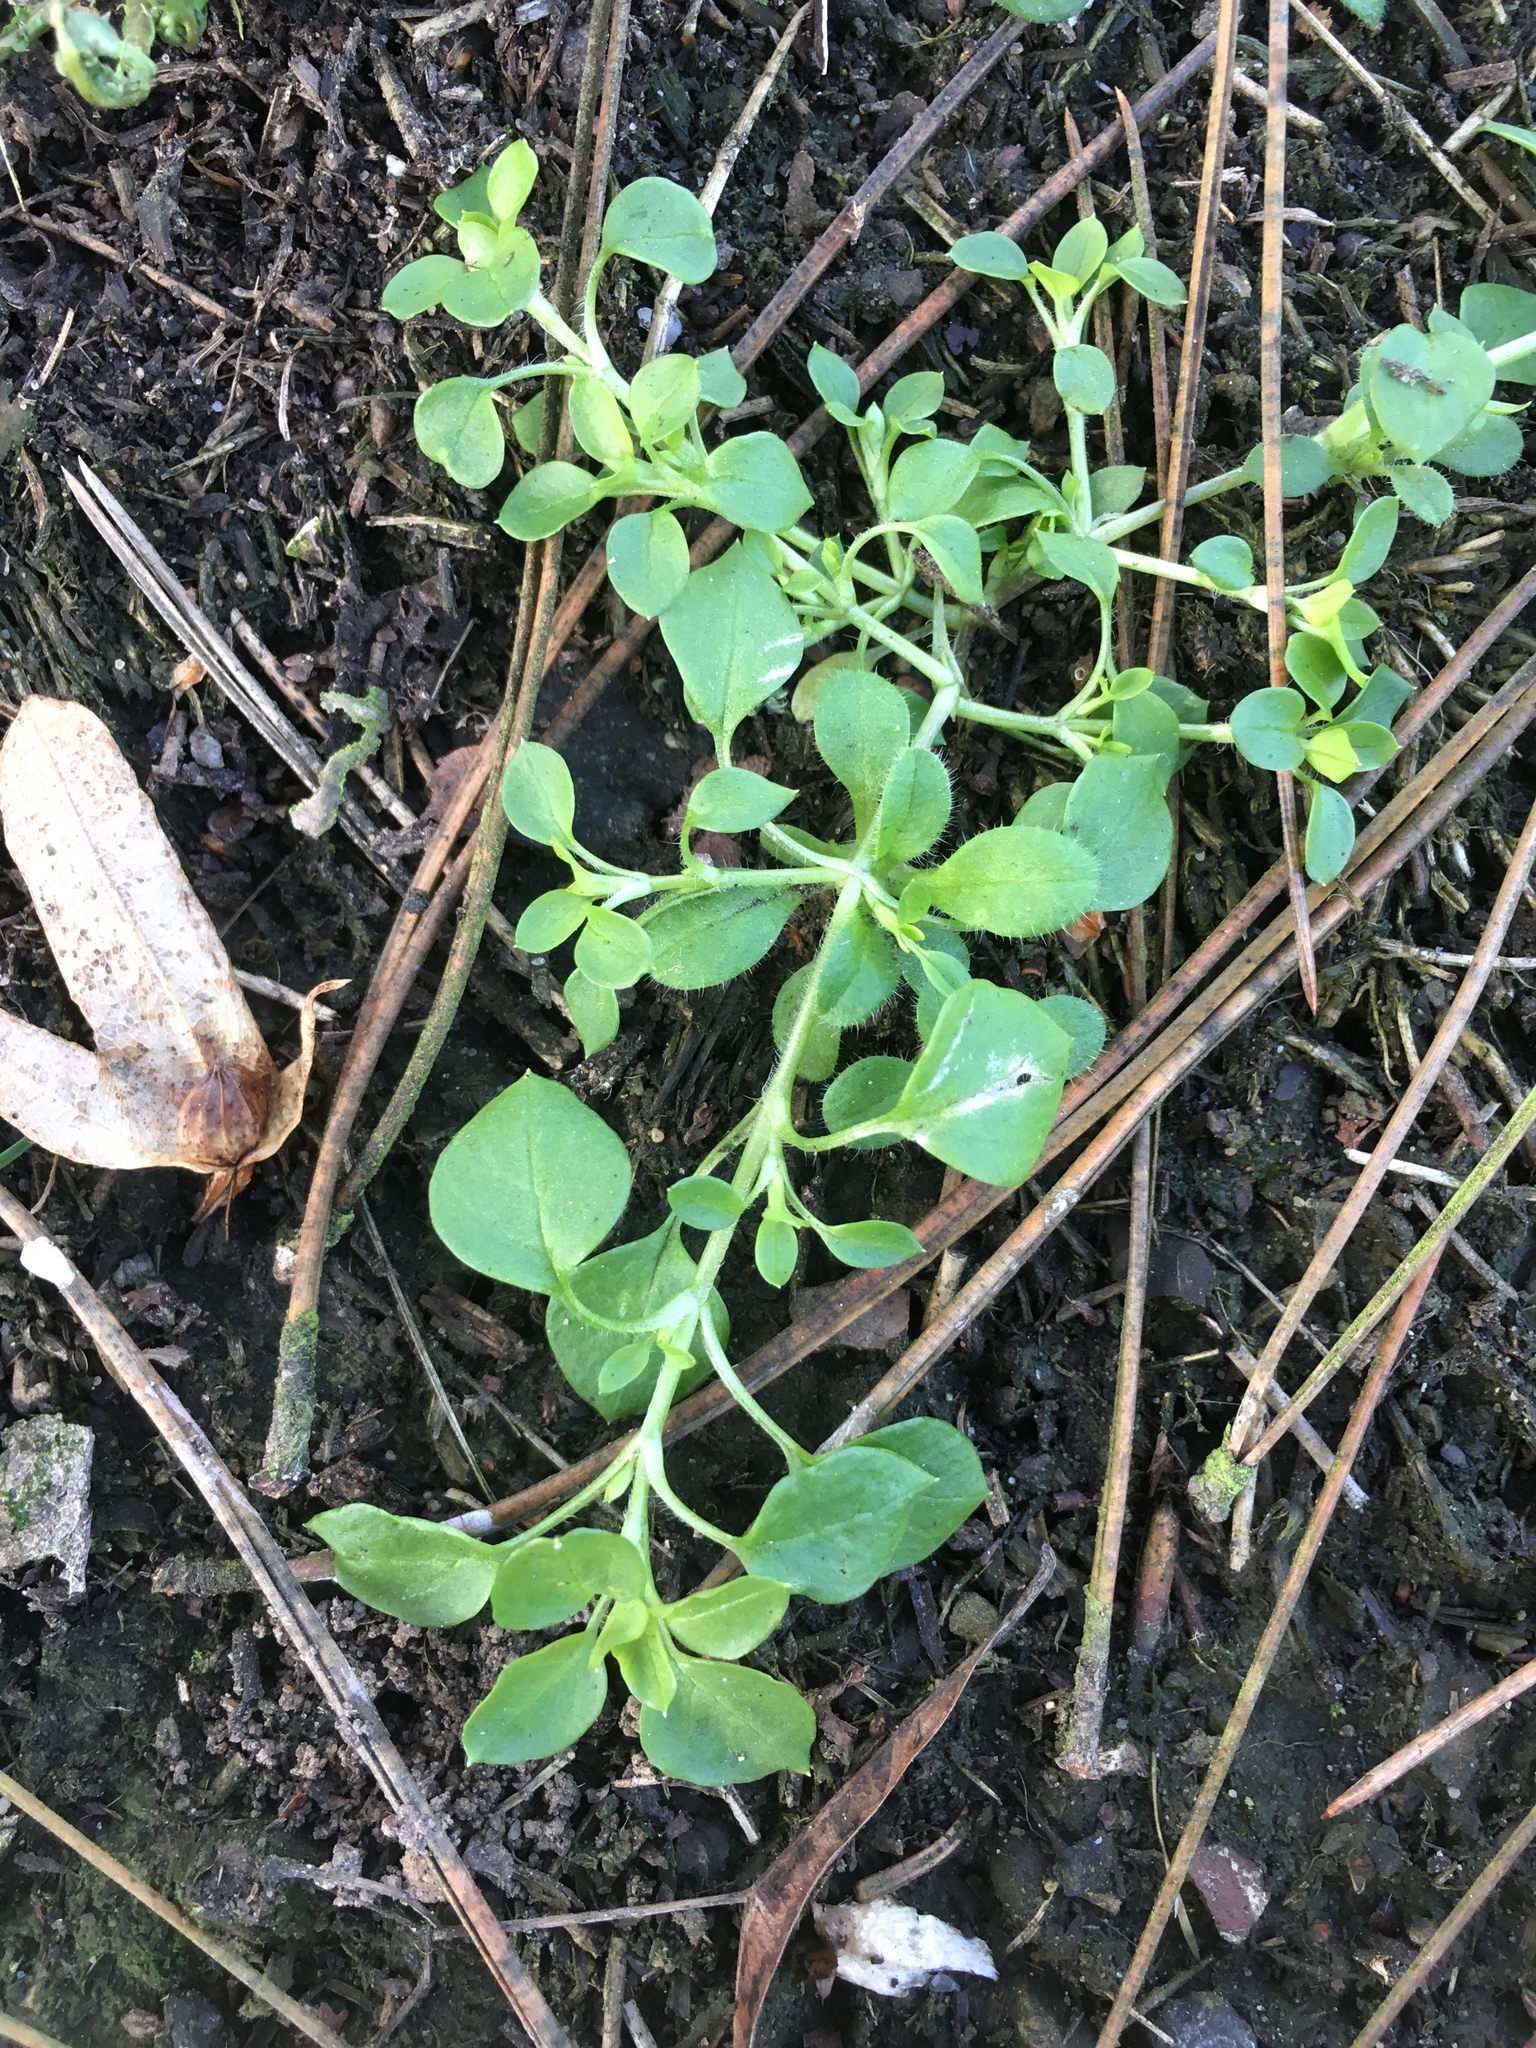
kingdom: Plantae
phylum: Tracheophyta
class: Magnoliopsida
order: Caryophyllales
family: Caryophyllaceae
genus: Stellaria
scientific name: Stellaria media
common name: Common chickweed
